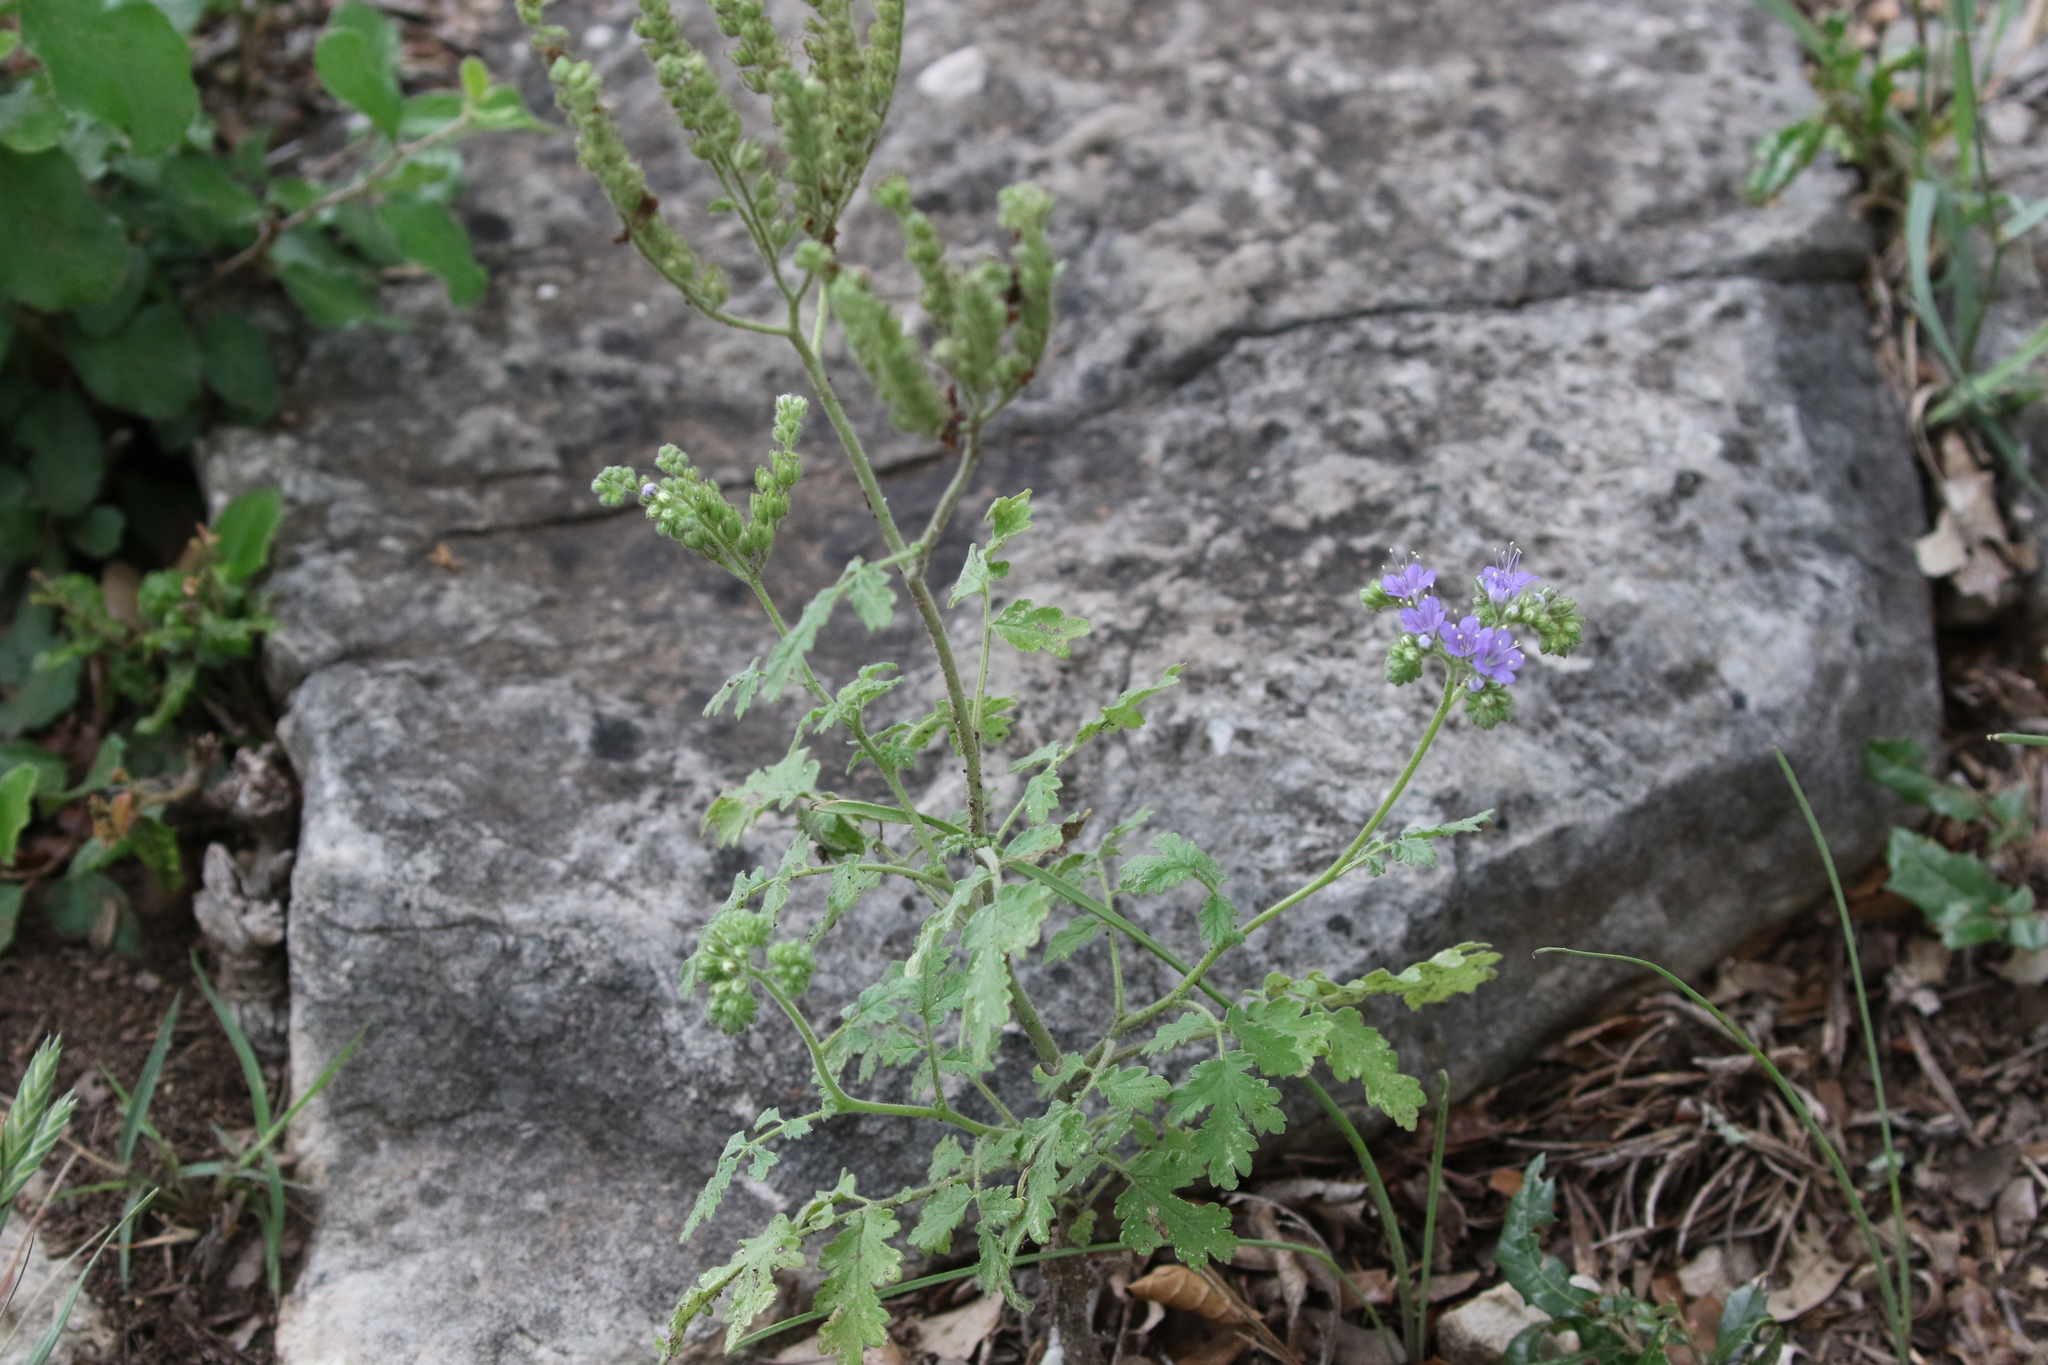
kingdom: Plantae
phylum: Tracheophyta
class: Magnoliopsida
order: Boraginales
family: Hydrophyllaceae
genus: Phacelia
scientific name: Phacelia congesta
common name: Blue curls
